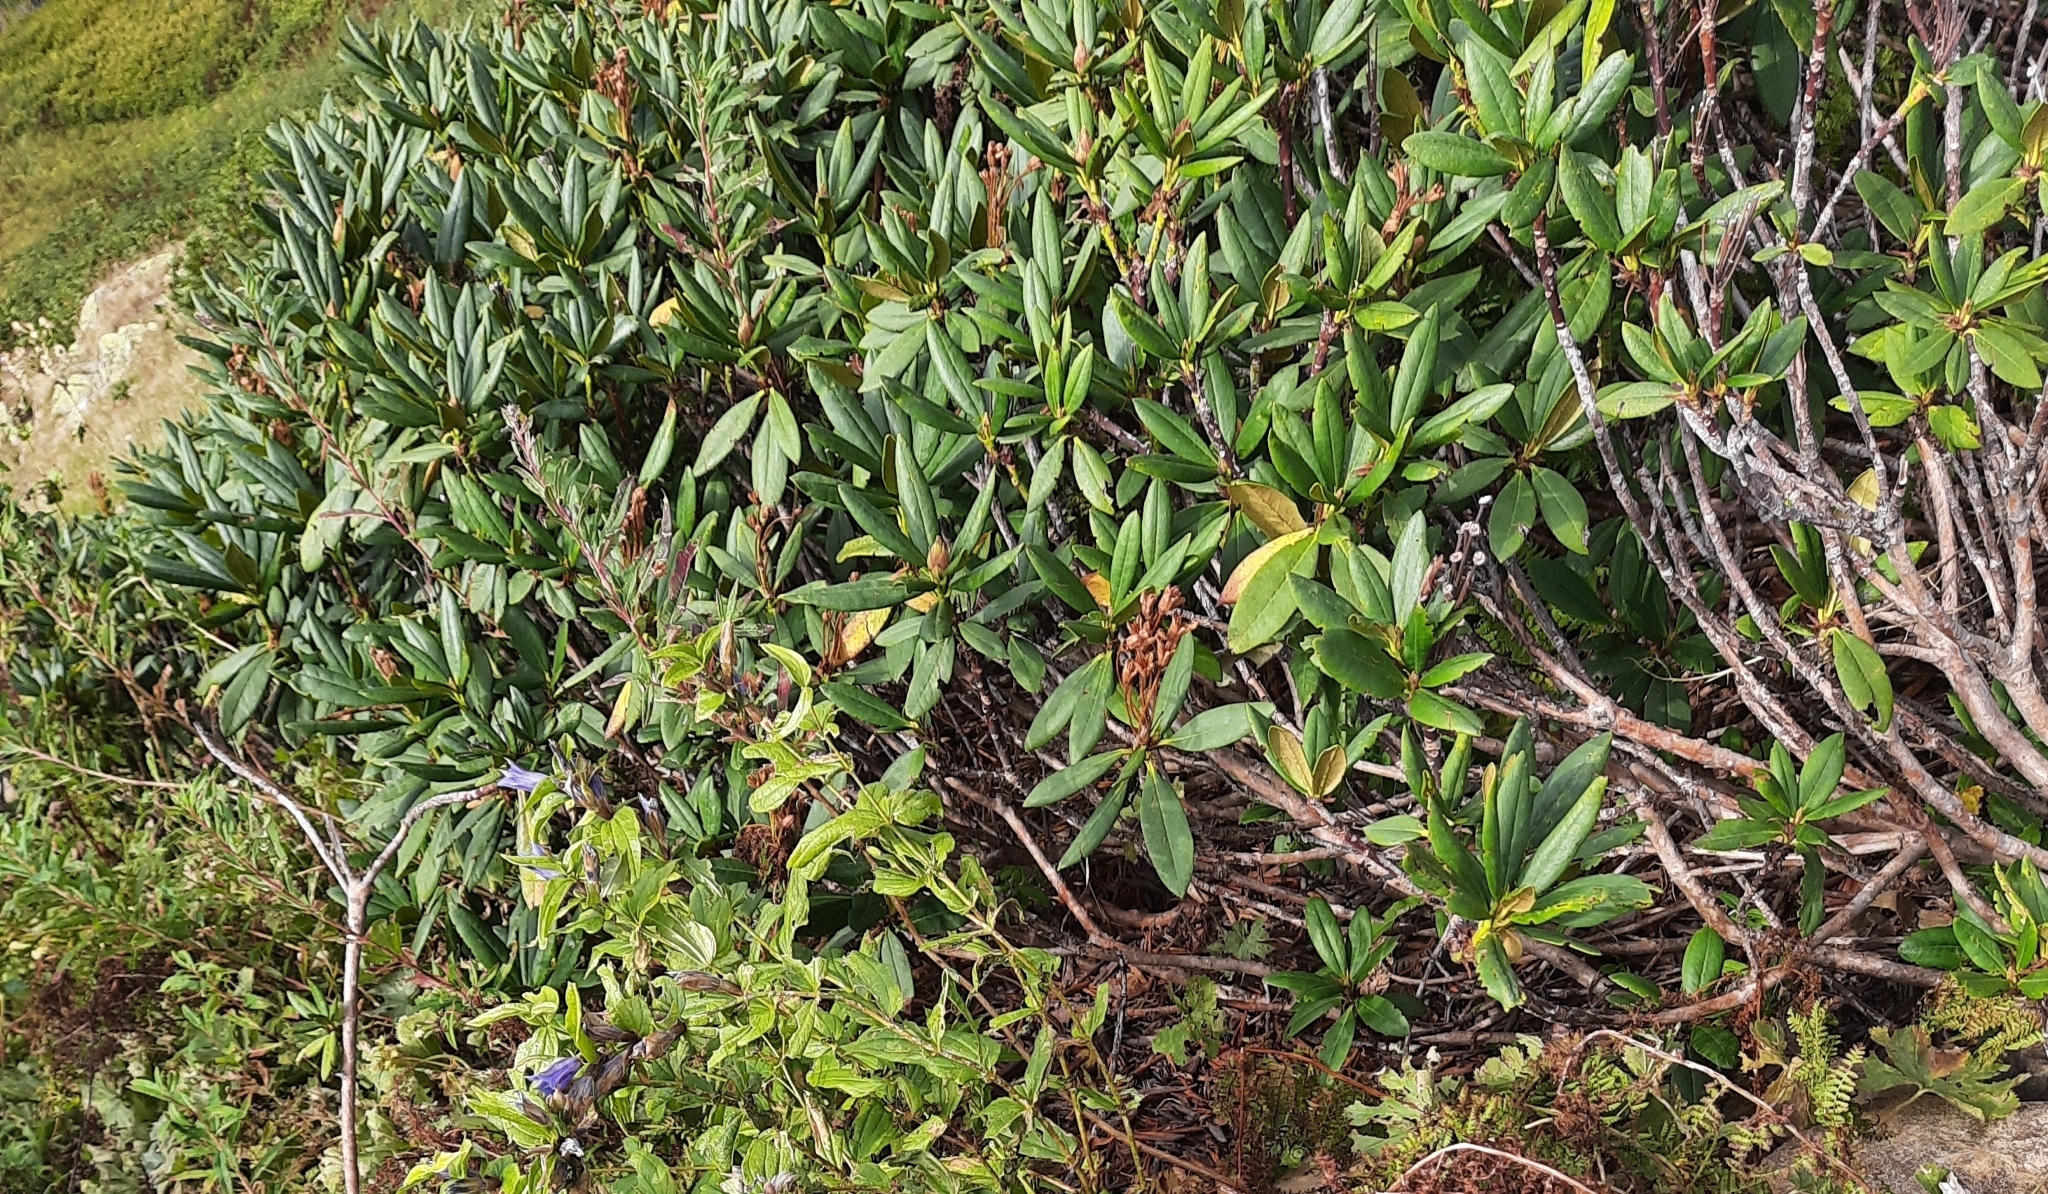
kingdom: Plantae
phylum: Tracheophyta
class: Magnoliopsida
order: Ericales
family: Ericaceae
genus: Rhododendron
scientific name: Rhododendron caucasicum
